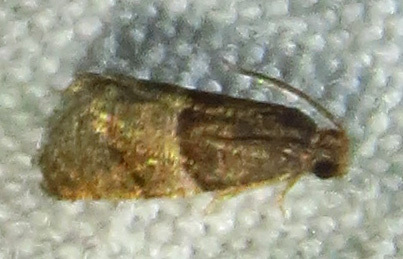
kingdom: Animalia
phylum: Arthropoda
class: Insecta
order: Lepidoptera
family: Tortricidae
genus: Larisa
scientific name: Larisa subsolana
